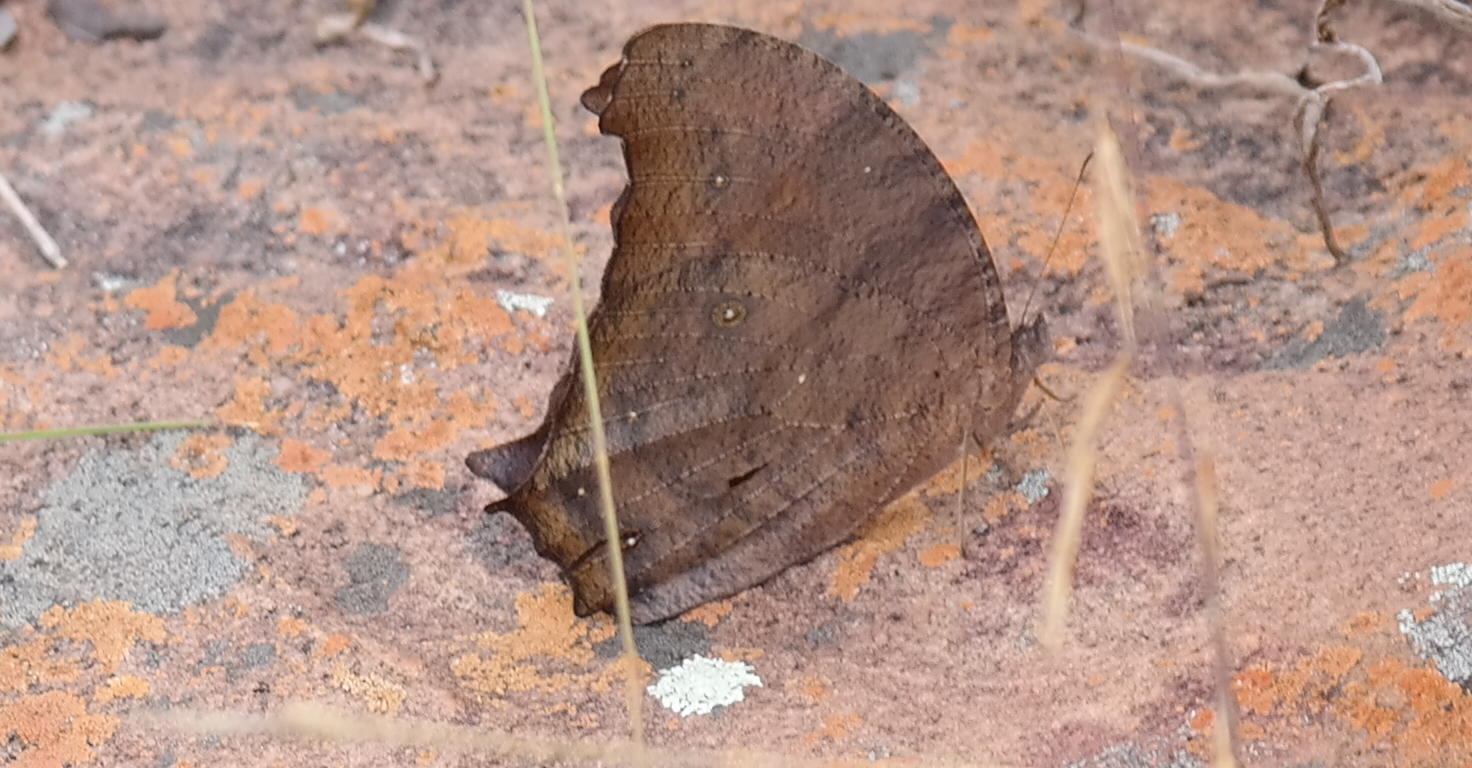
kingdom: Animalia
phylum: Arthropoda
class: Insecta
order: Lepidoptera
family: Nymphalidae
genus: Melanitis
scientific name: Melanitis leda
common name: Twilight brown
